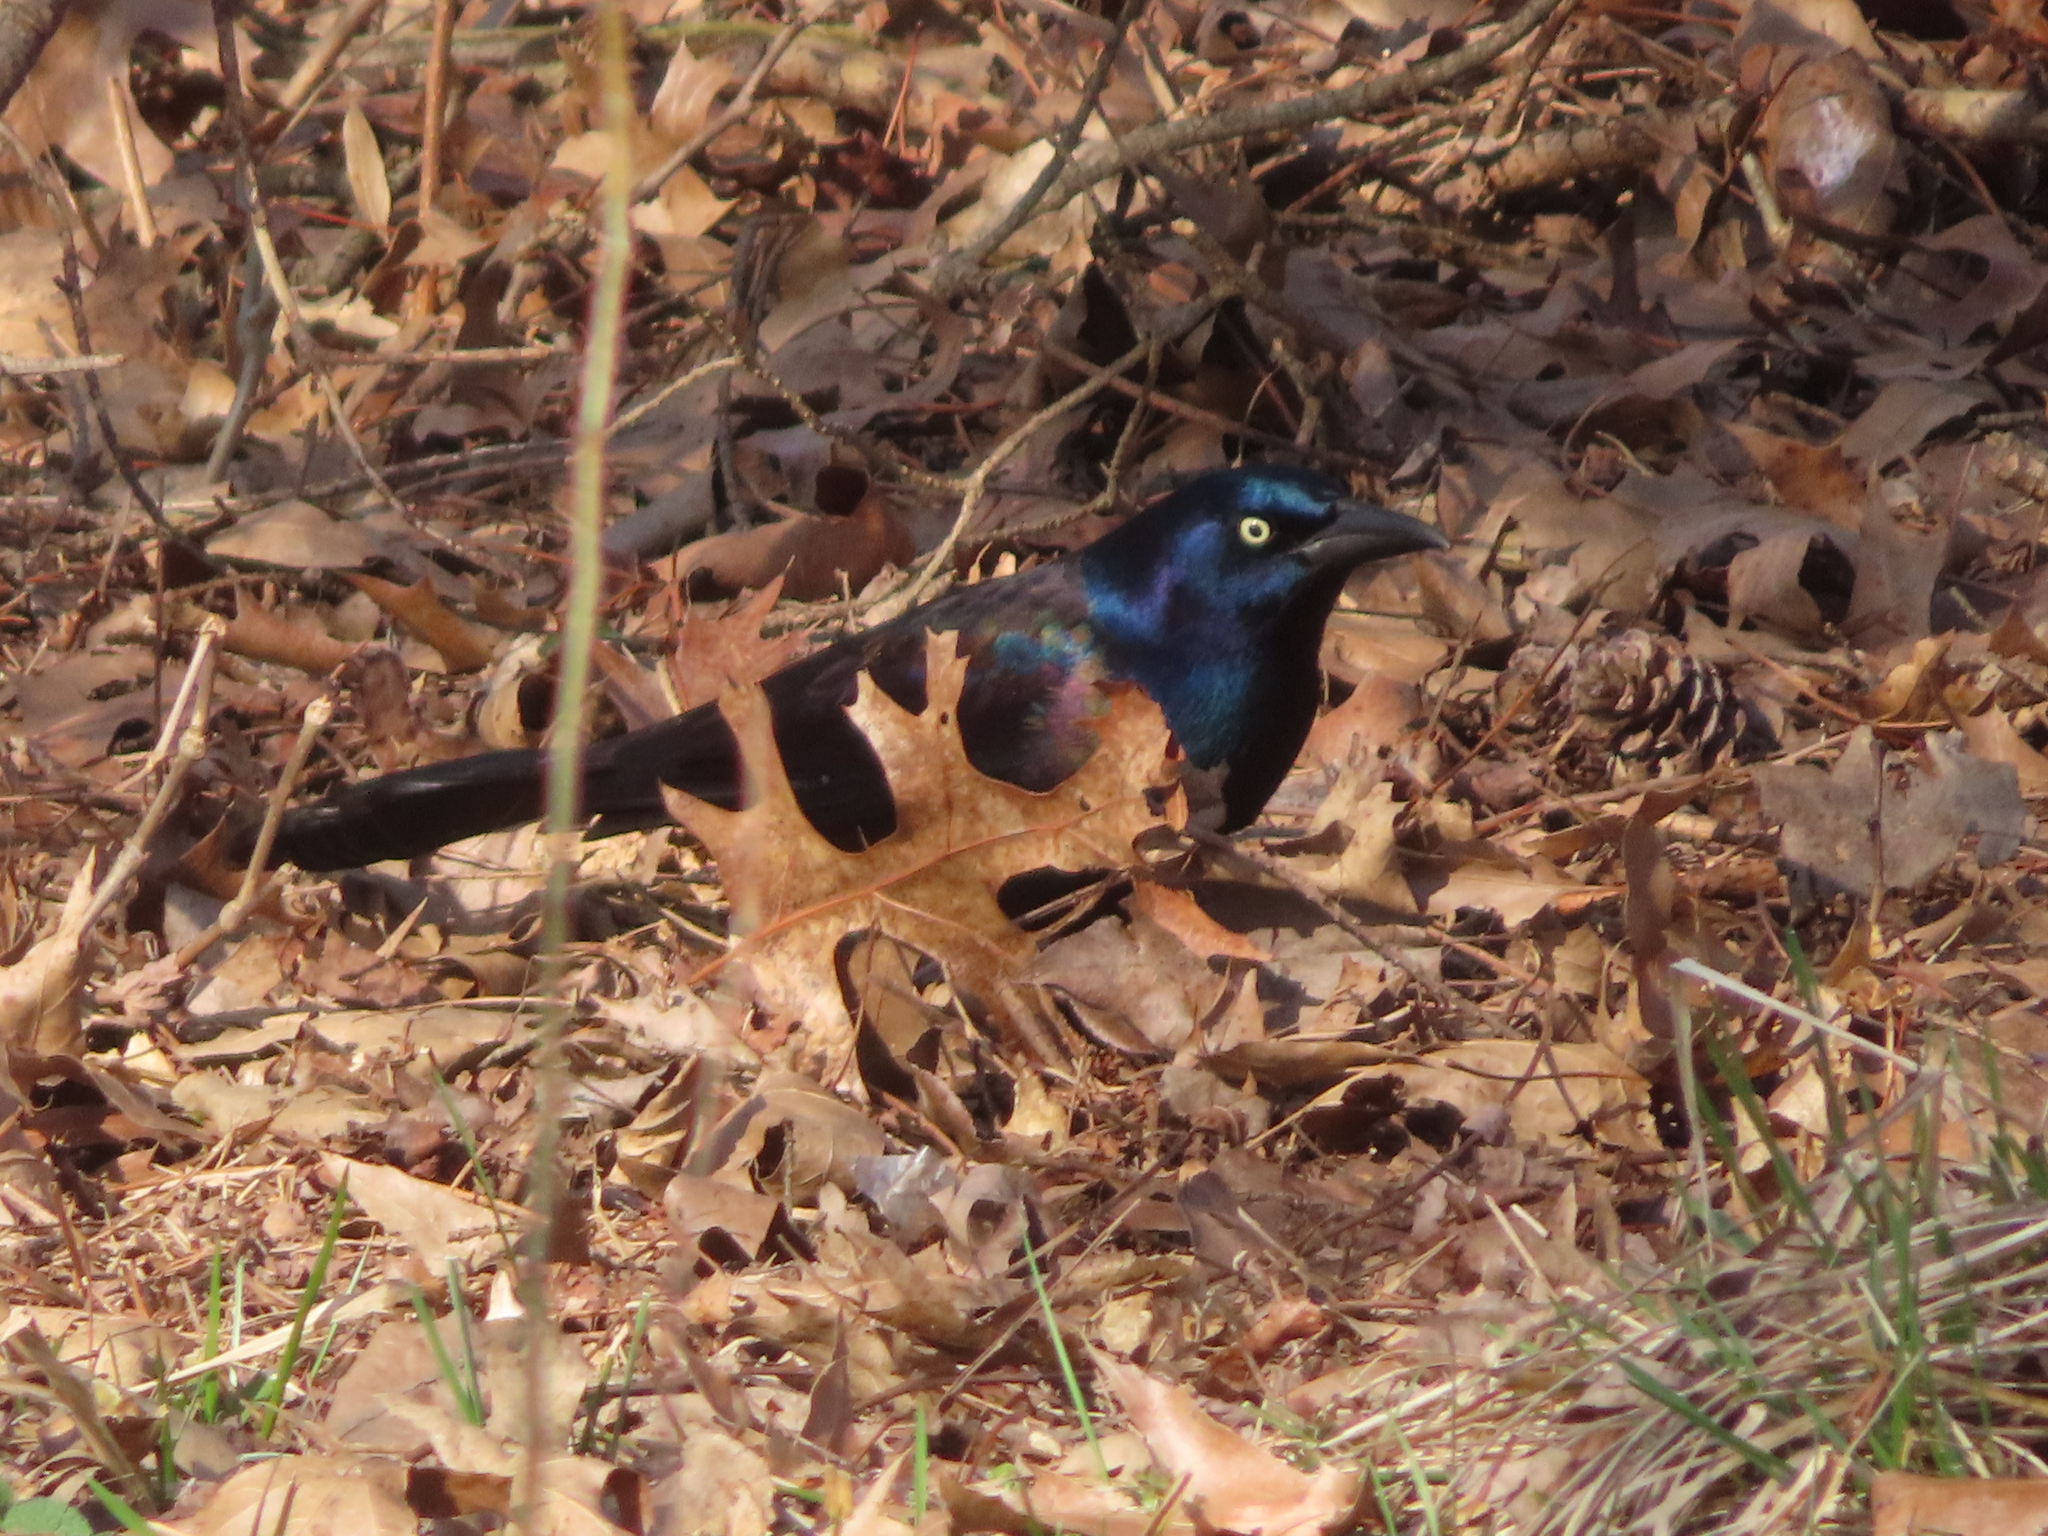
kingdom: Animalia
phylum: Chordata
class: Aves
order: Passeriformes
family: Icteridae
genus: Quiscalus
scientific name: Quiscalus quiscula
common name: Common grackle
